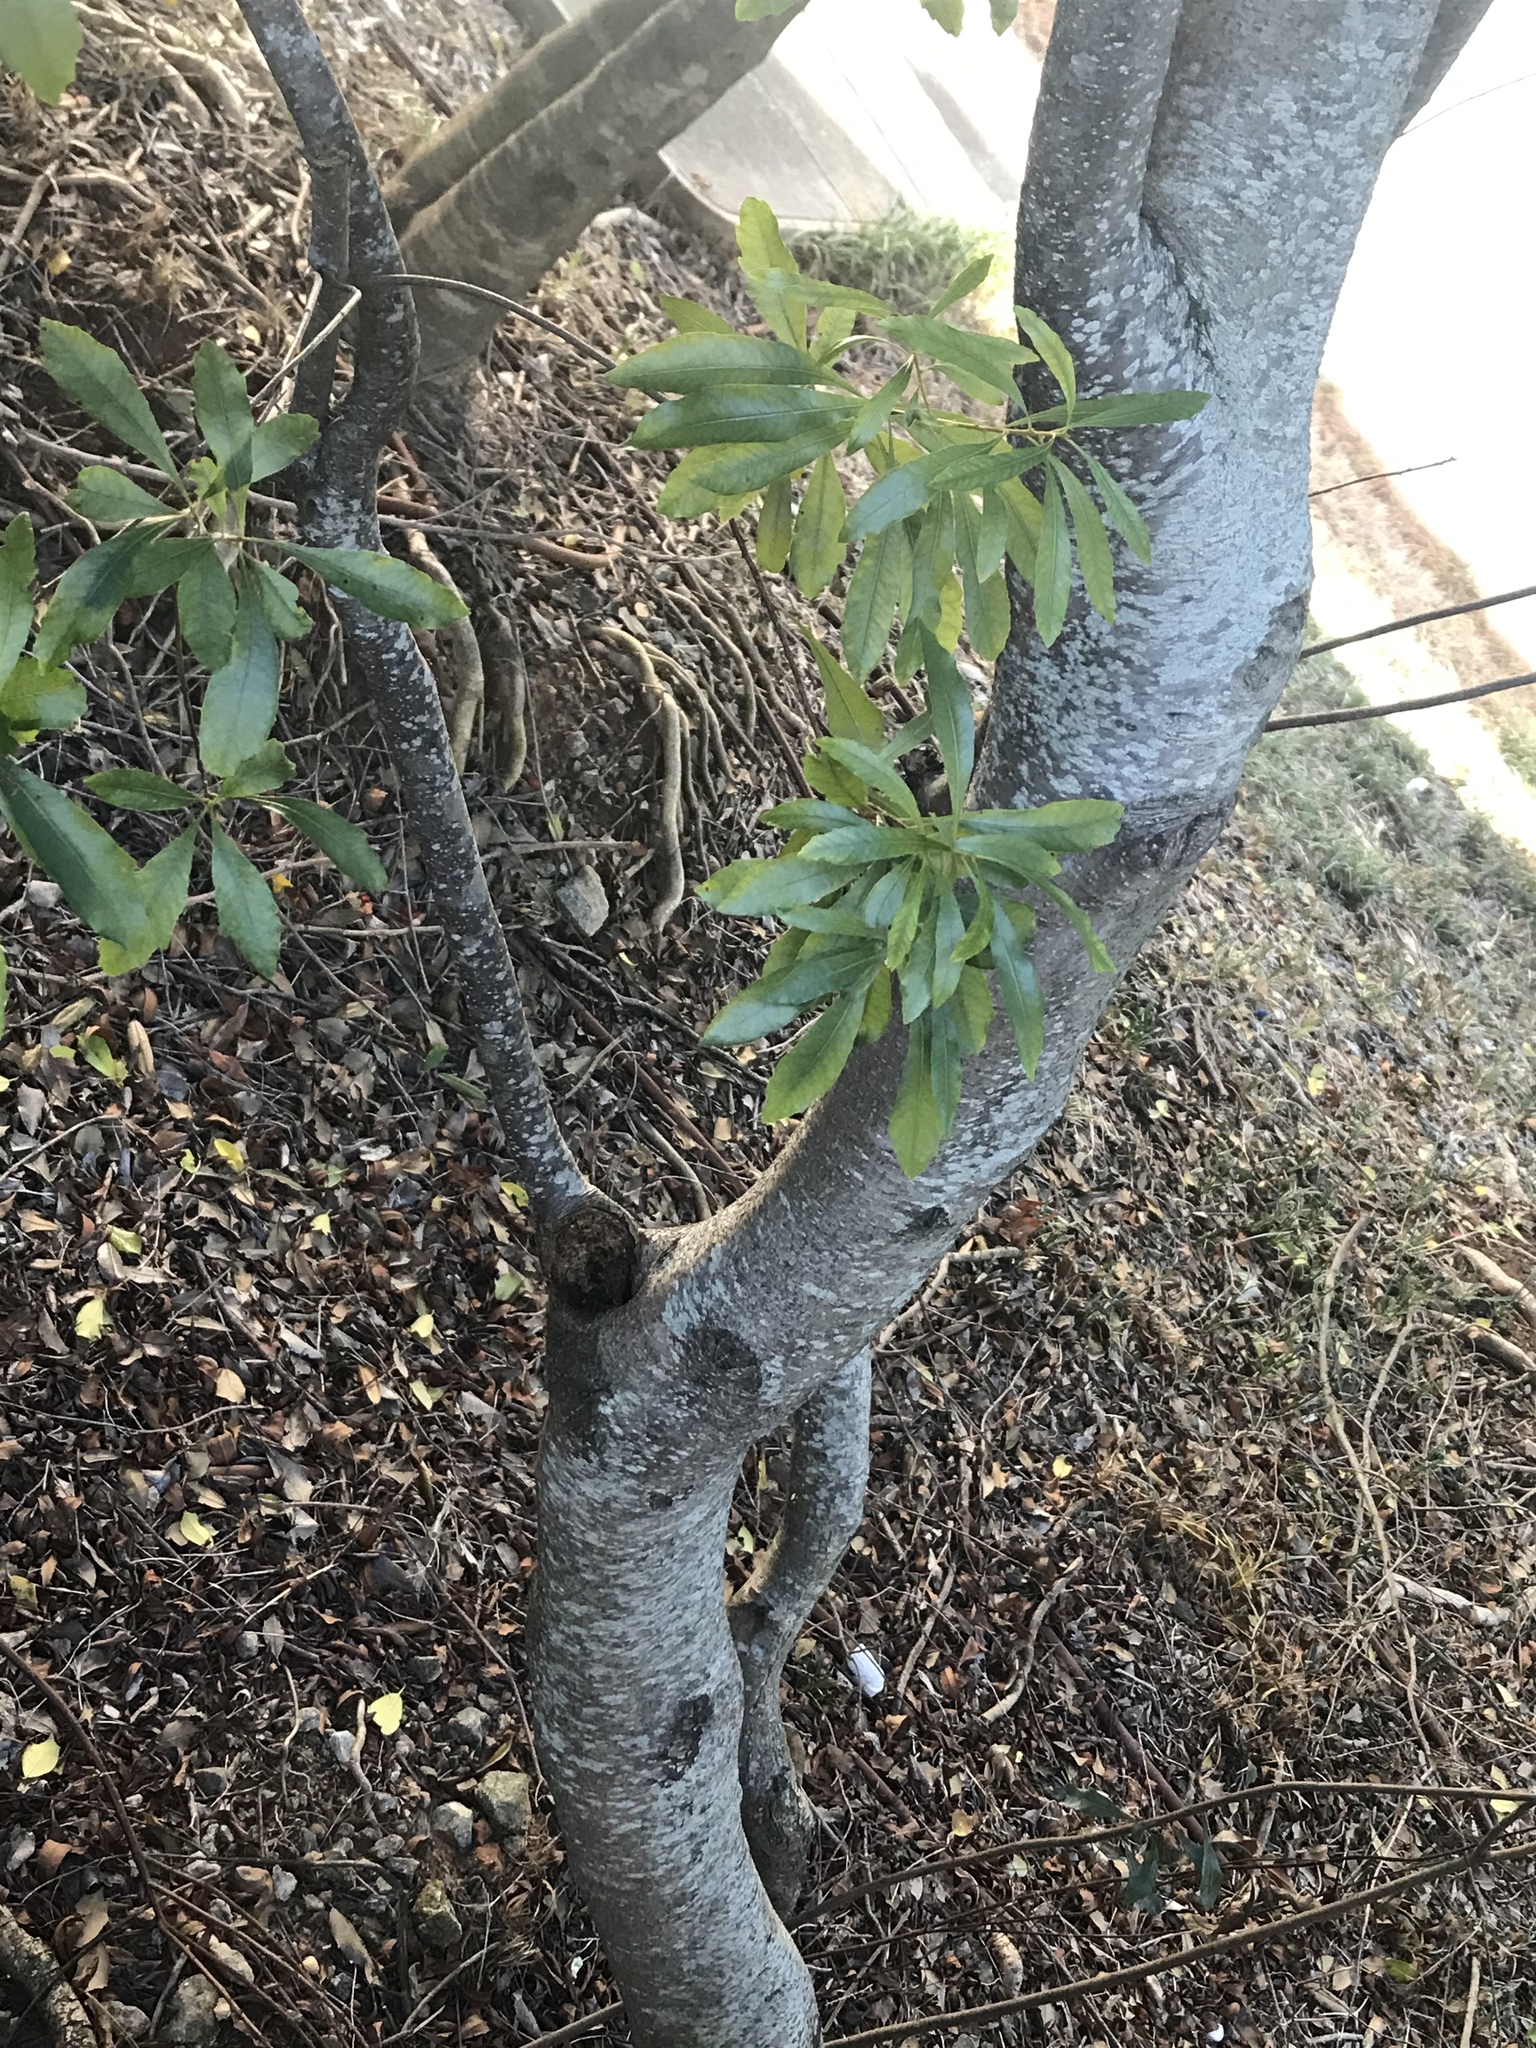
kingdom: Plantae
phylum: Tracheophyta
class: Magnoliopsida
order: Fagales
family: Myricaceae
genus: Morella
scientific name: Morella cerifera
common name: Wax myrtle
